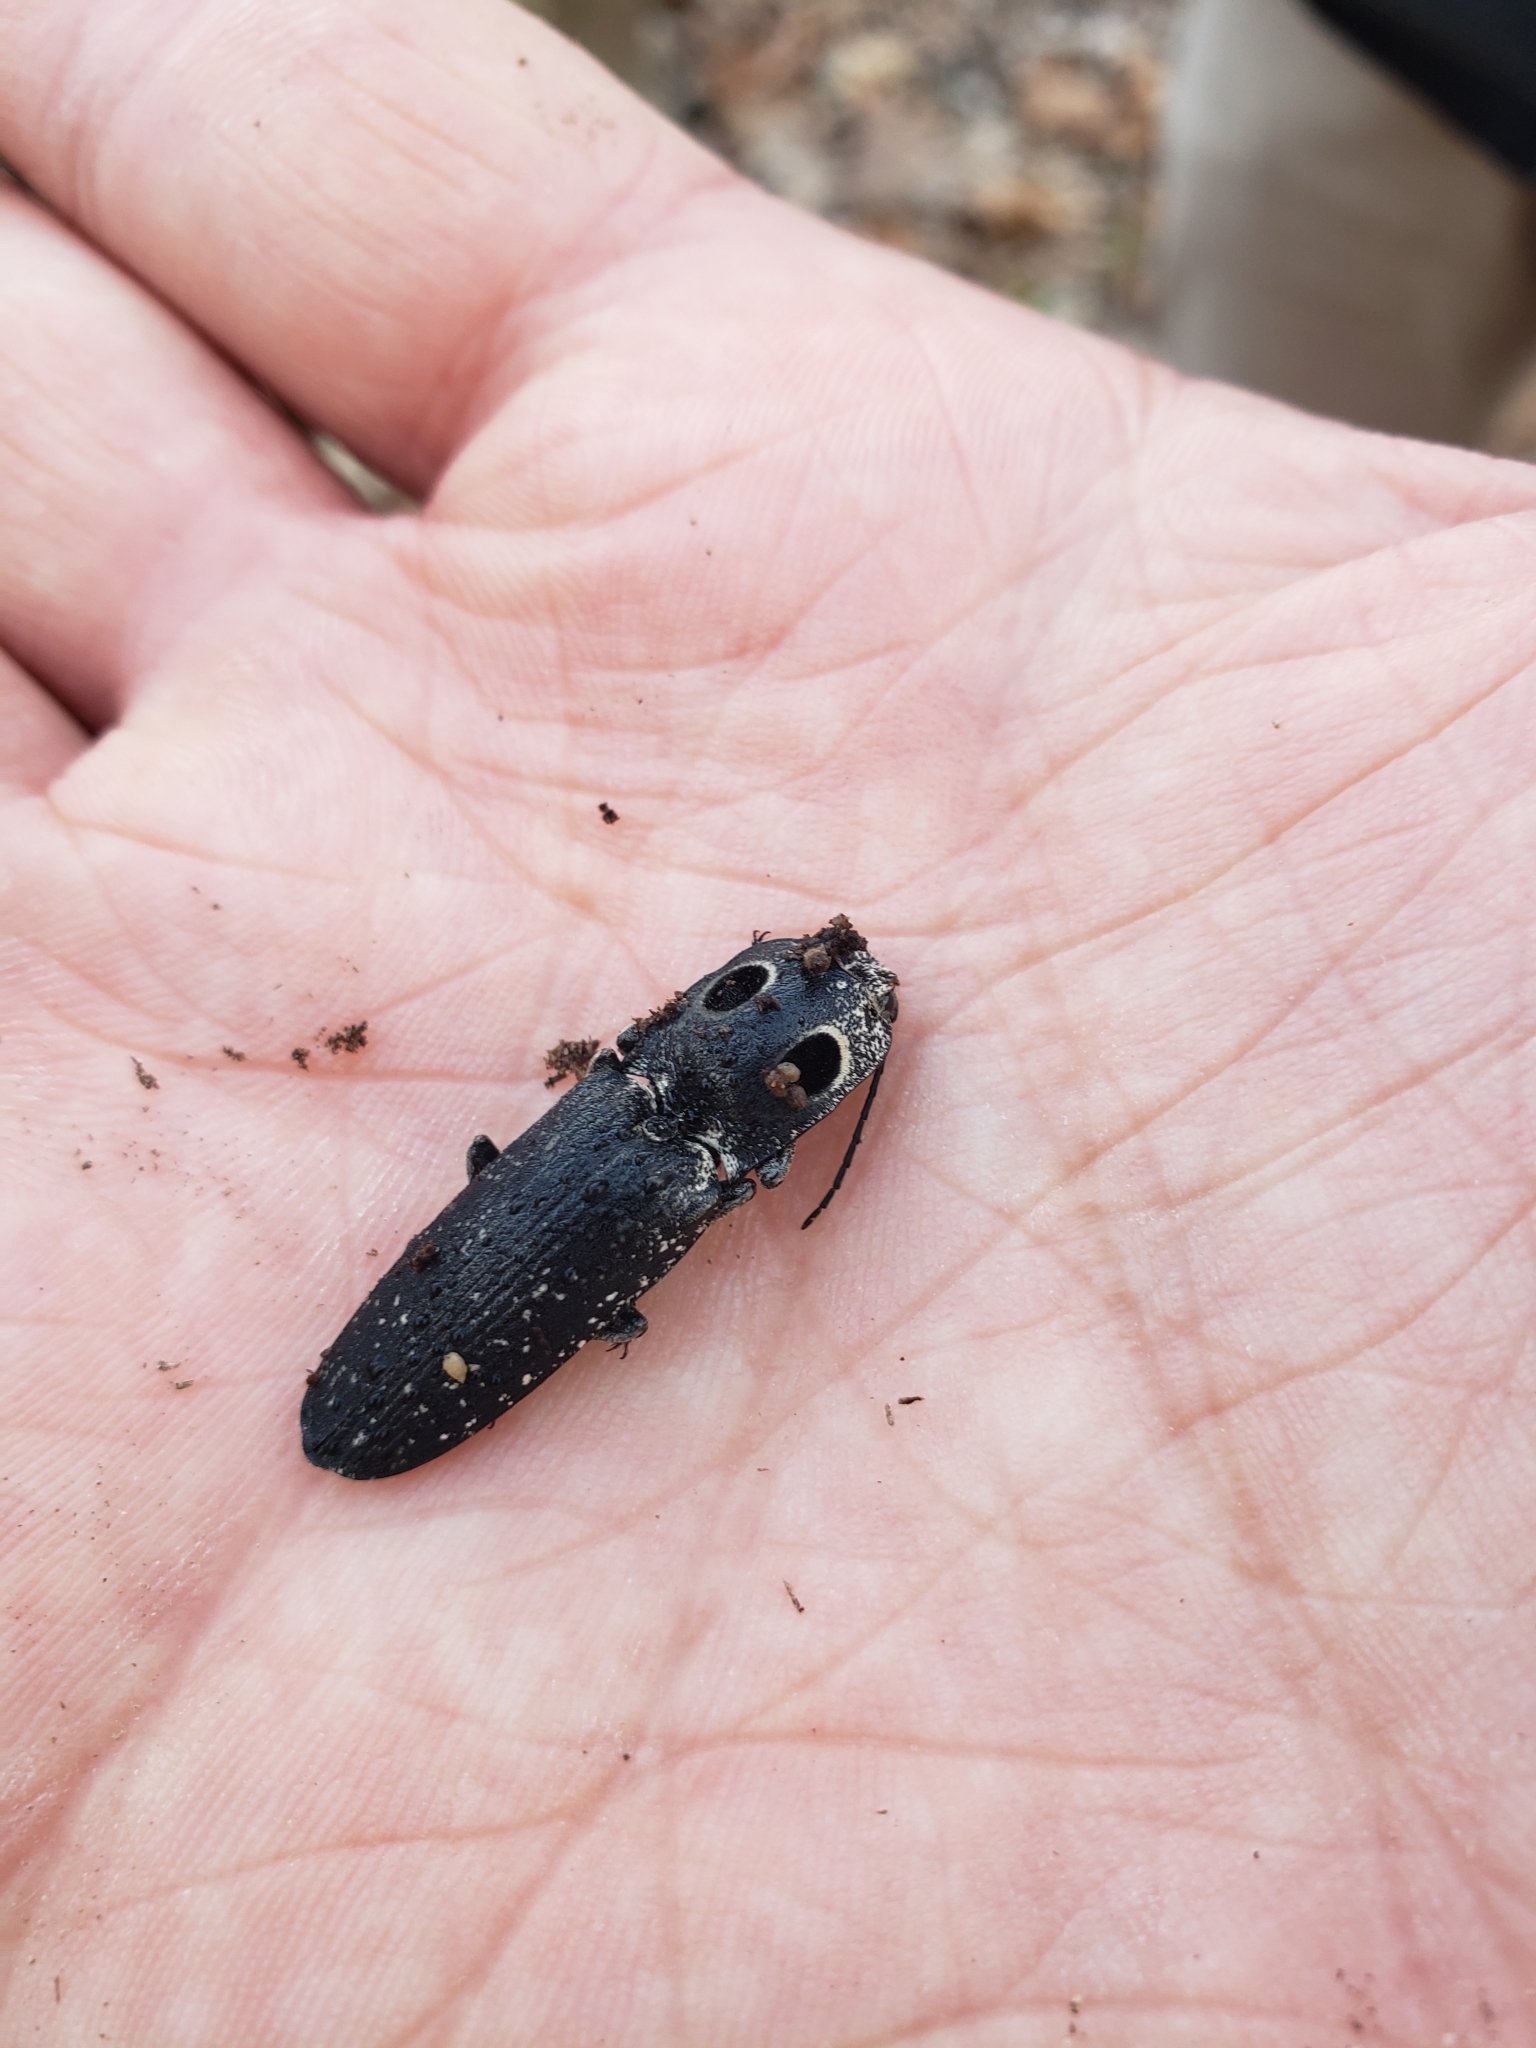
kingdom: Animalia
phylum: Arthropoda
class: Insecta
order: Coleoptera
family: Elateridae
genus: Alaus
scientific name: Alaus oculatus
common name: Eastern eyed click beetle
